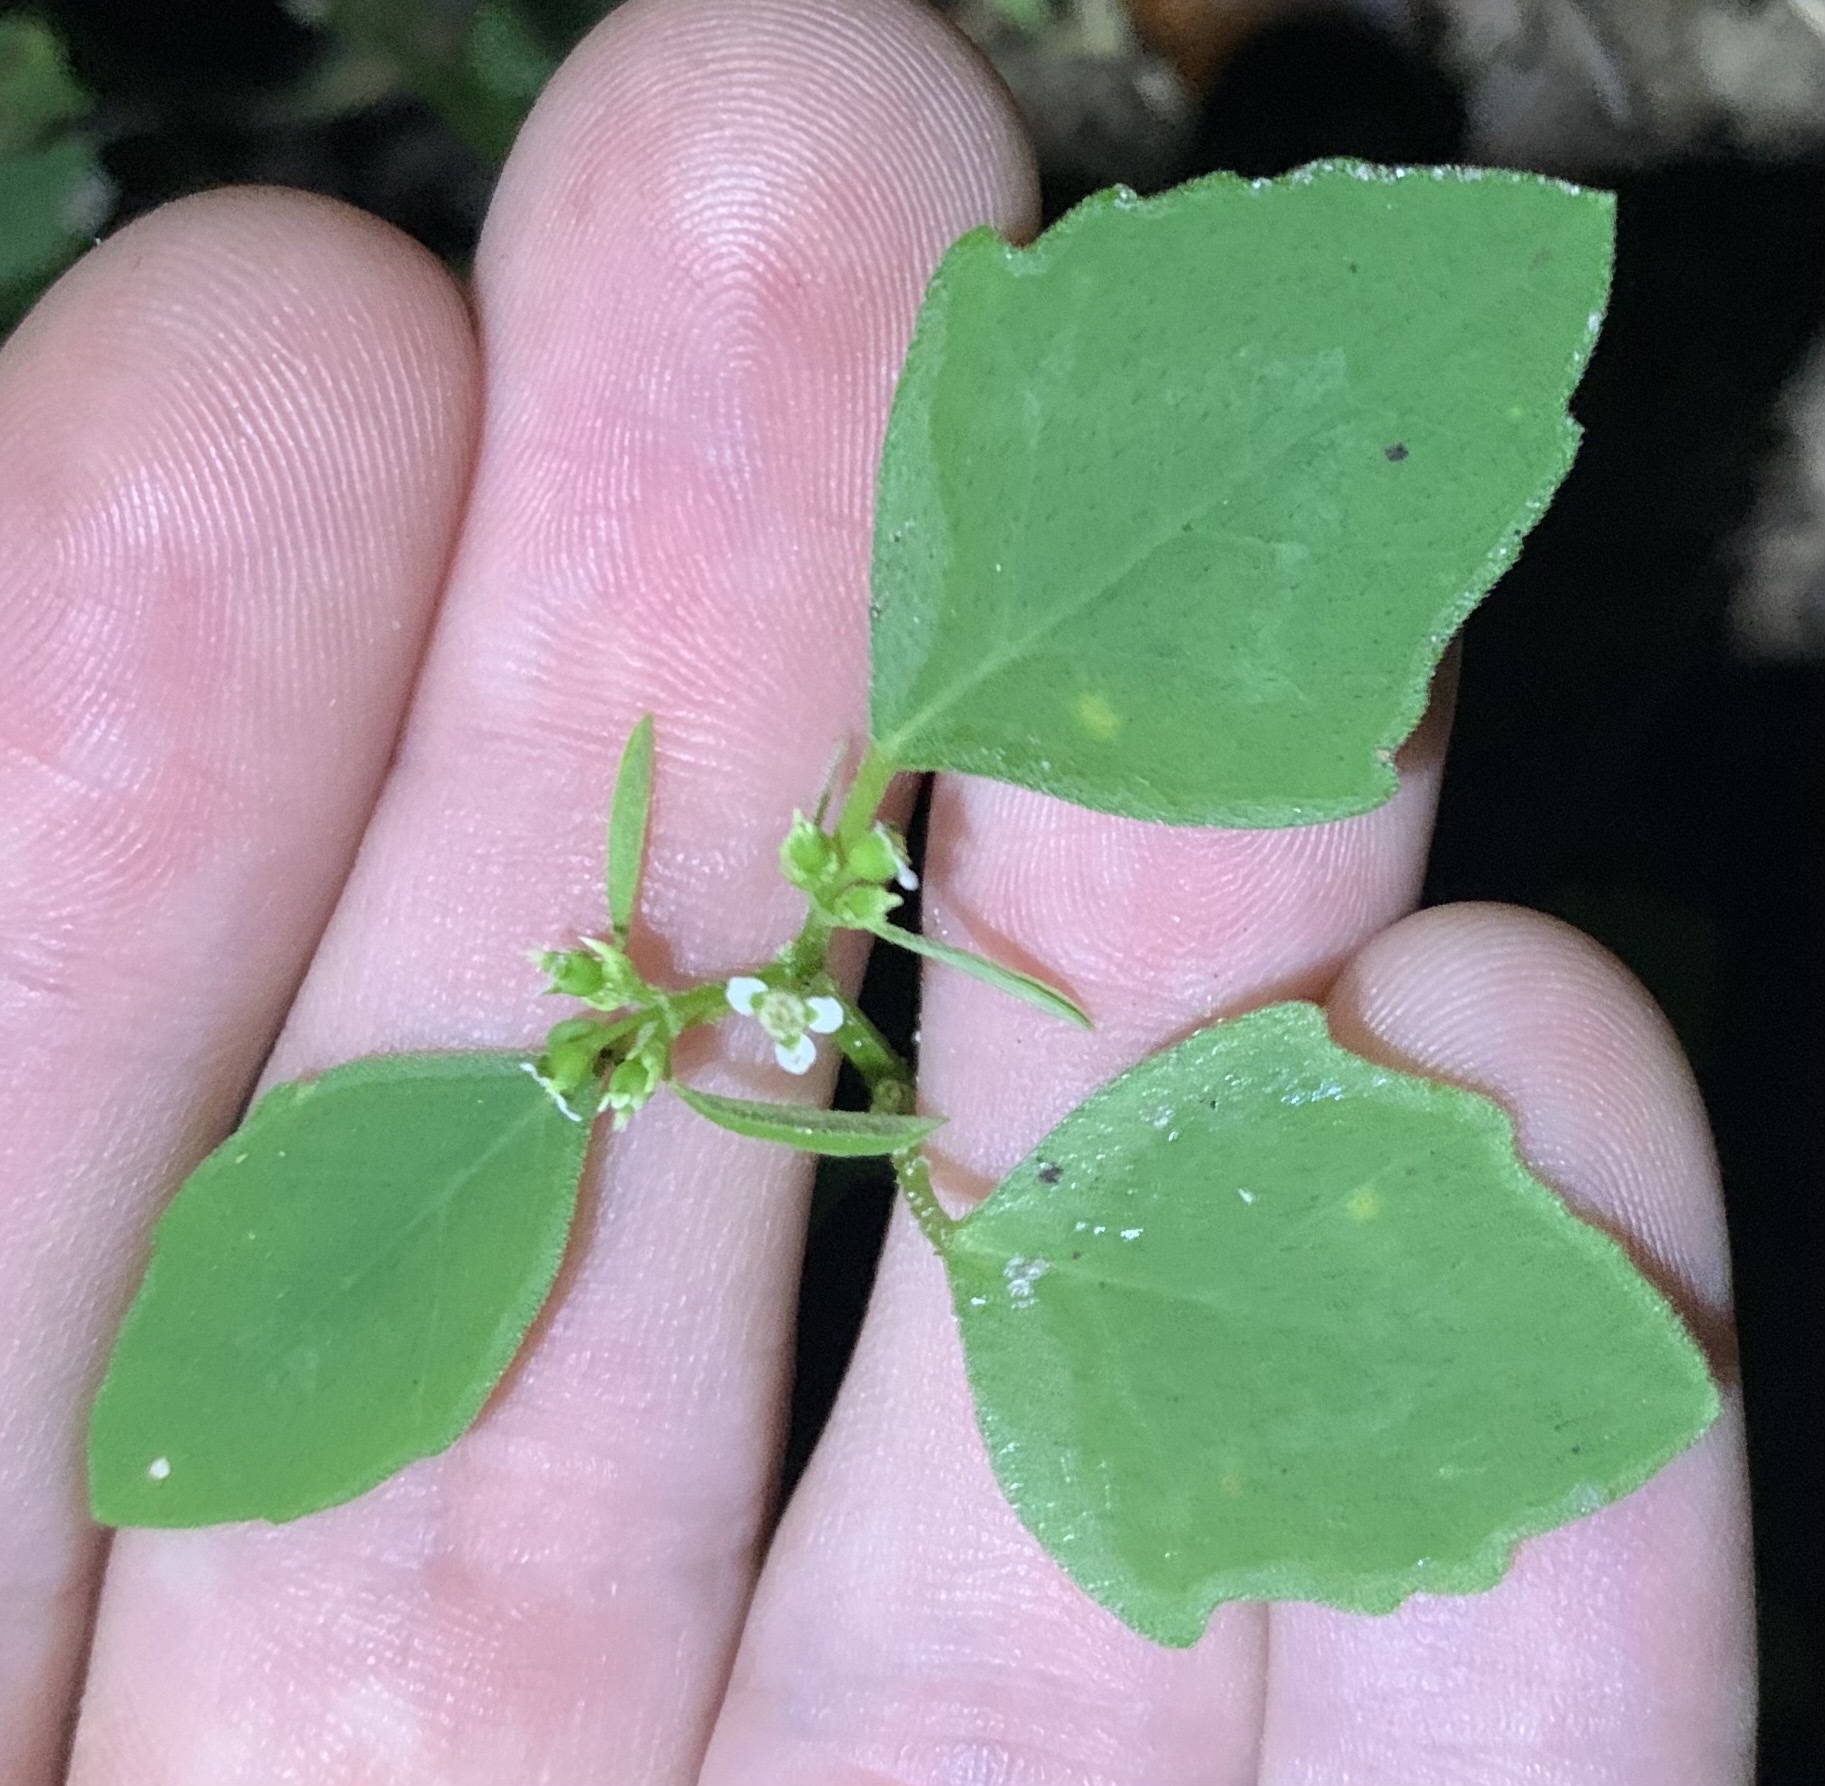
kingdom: Plantae
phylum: Tracheophyta
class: Magnoliopsida
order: Malpighiales
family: Euphorbiaceae
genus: Euphorbia
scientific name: Euphorbia graminea
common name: Grassleaf spurge
